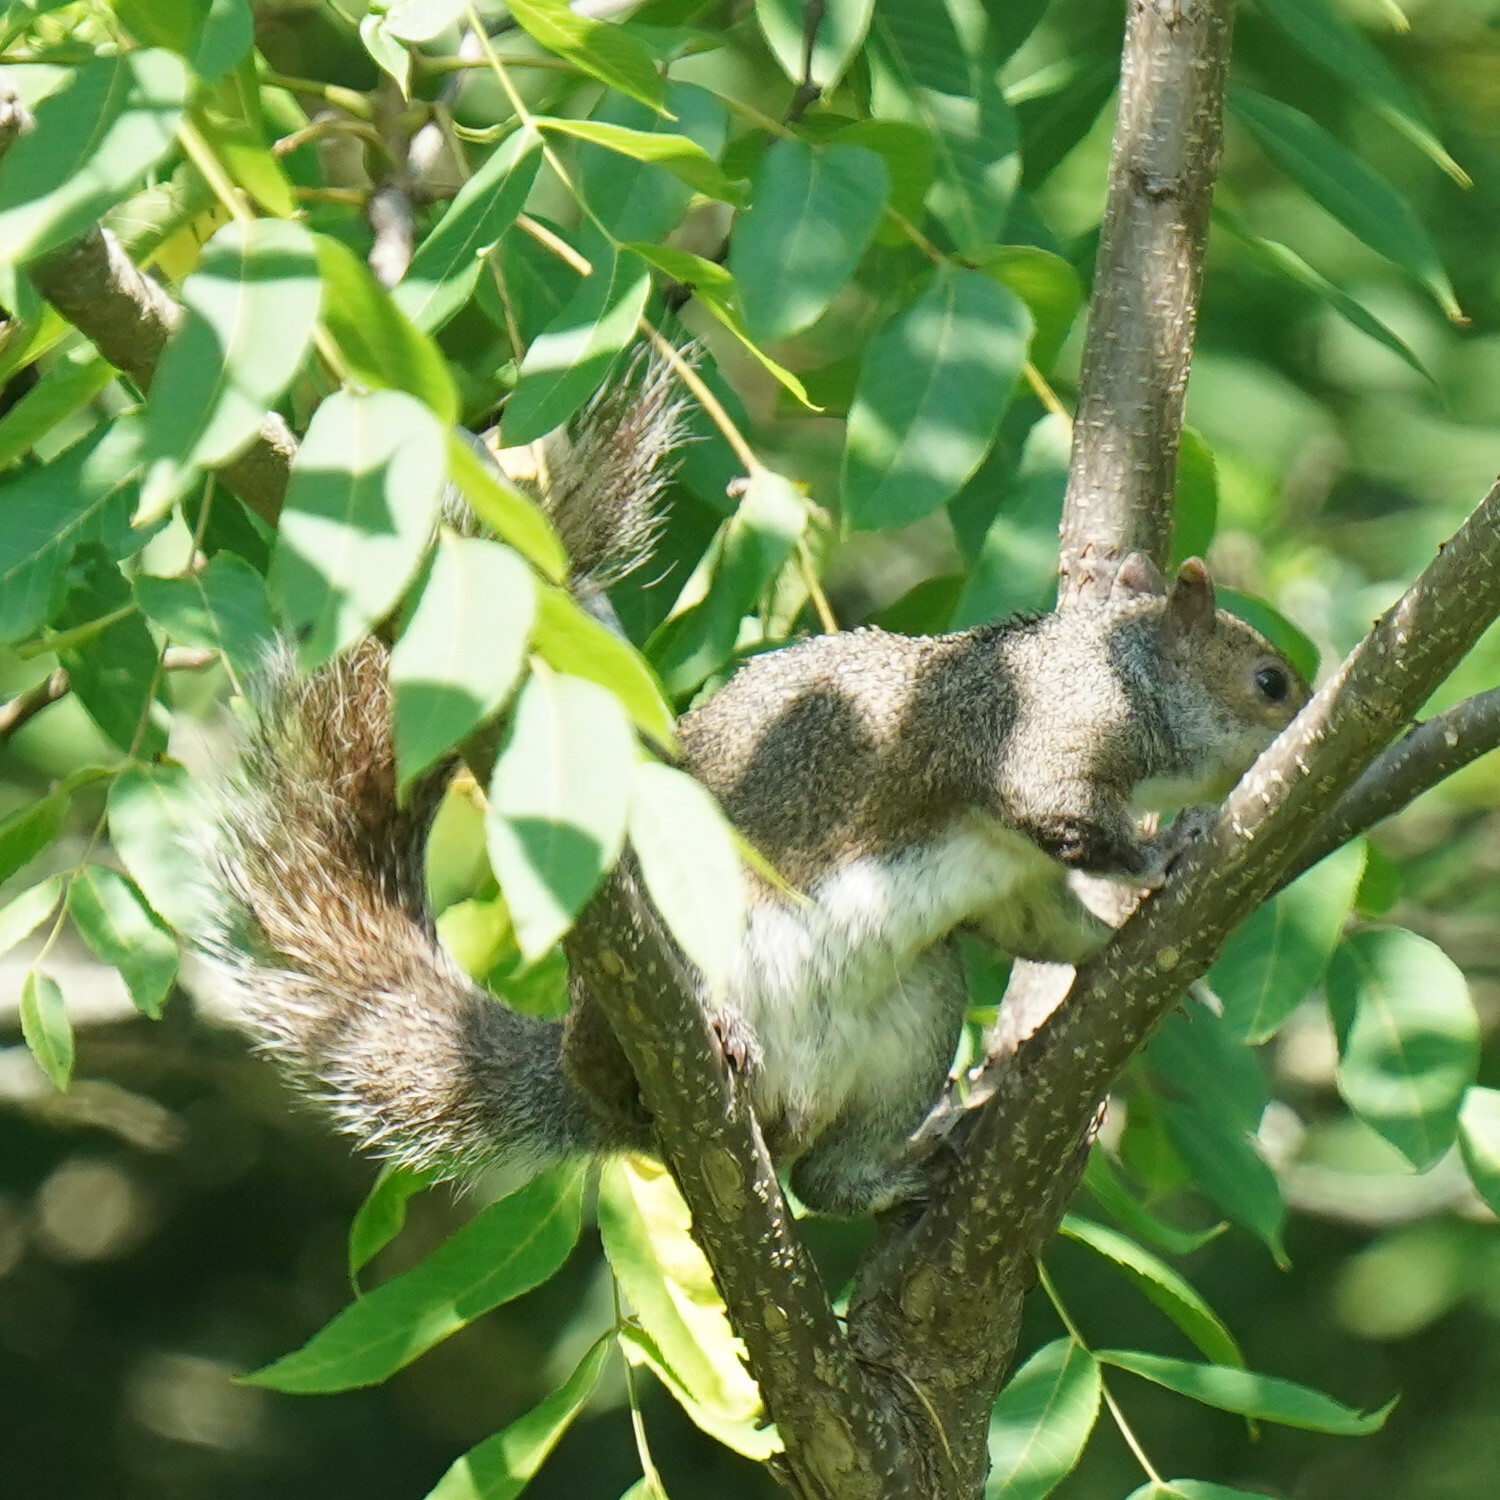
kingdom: Animalia
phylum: Chordata
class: Mammalia
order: Rodentia
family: Sciuridae
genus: Sciurus
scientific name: Sciurus carolinensis
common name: Eastern gray squirrel
